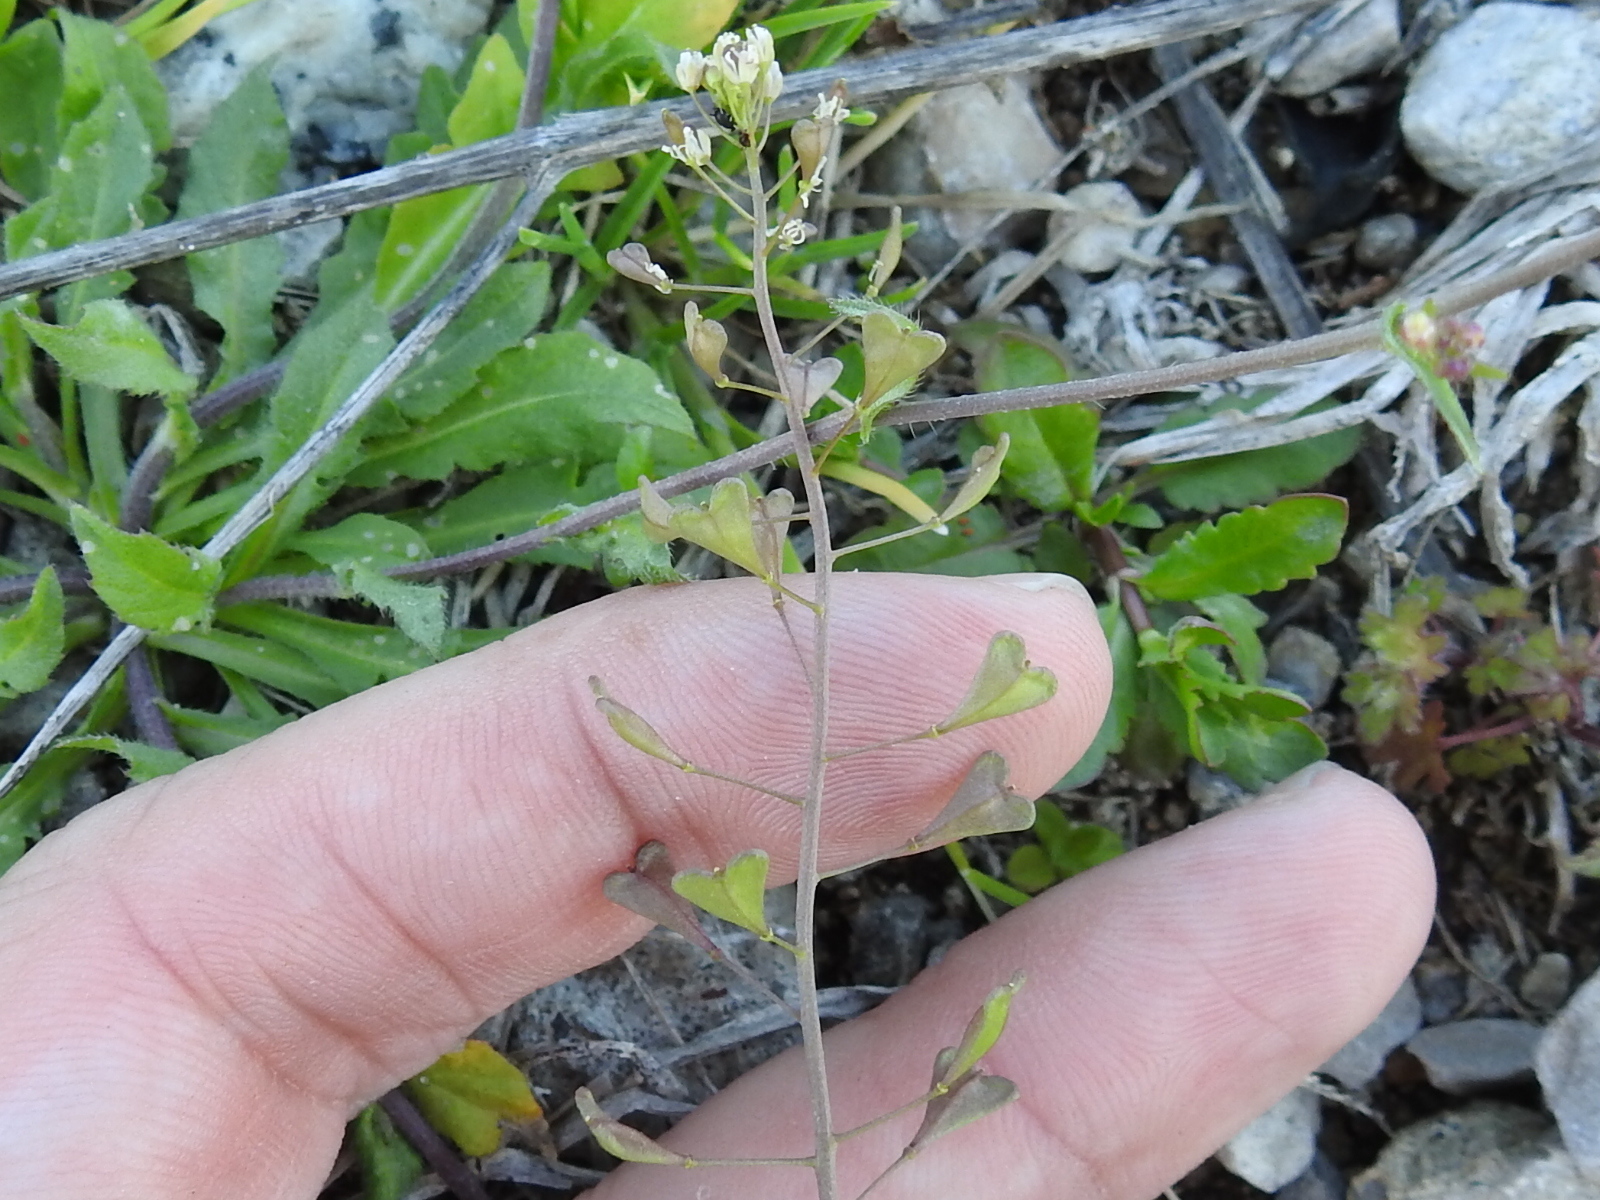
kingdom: Plantae
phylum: Tracheophyta
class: Magnoliopsida
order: Brassicales
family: Brassicaceae
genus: Capsella
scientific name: Capsella bursa-pastoris
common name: Shepherd's purse
